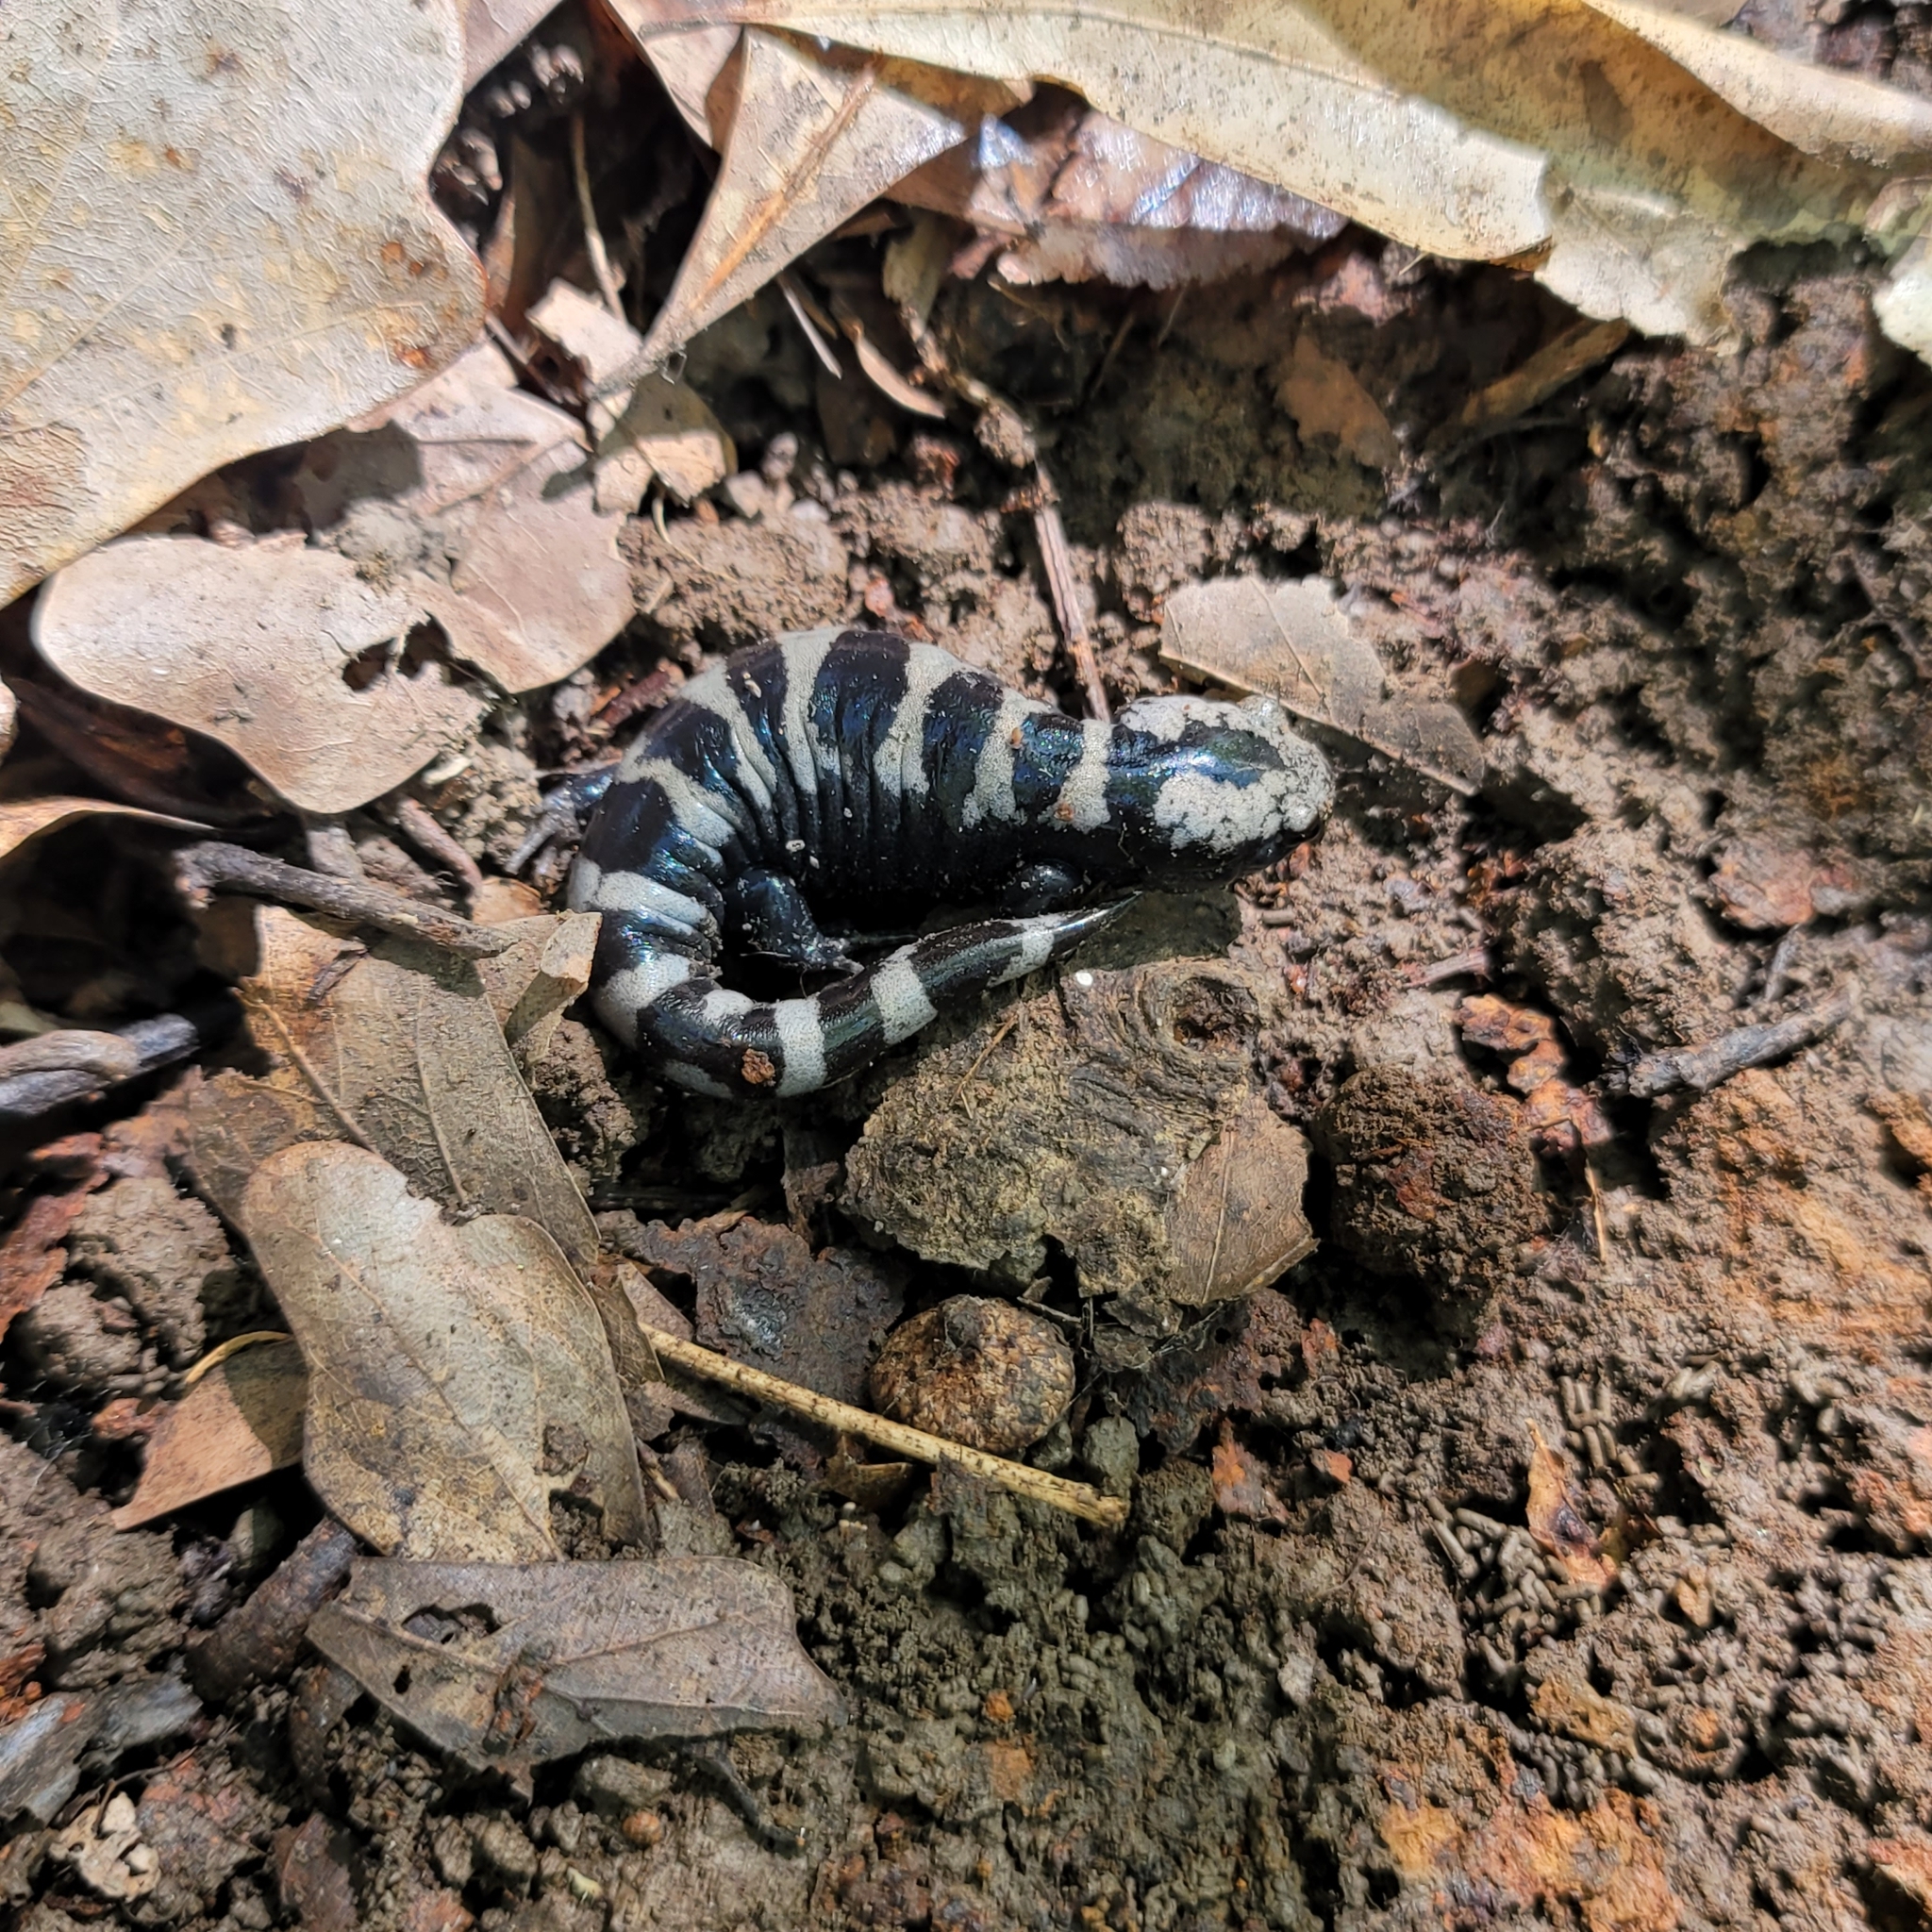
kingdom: Animalia
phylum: Chordata
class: Amphibia
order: Caudata
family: Ambystomatidae
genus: Ambystoma
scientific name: Ambystoma opacum
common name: Marbled salamander
